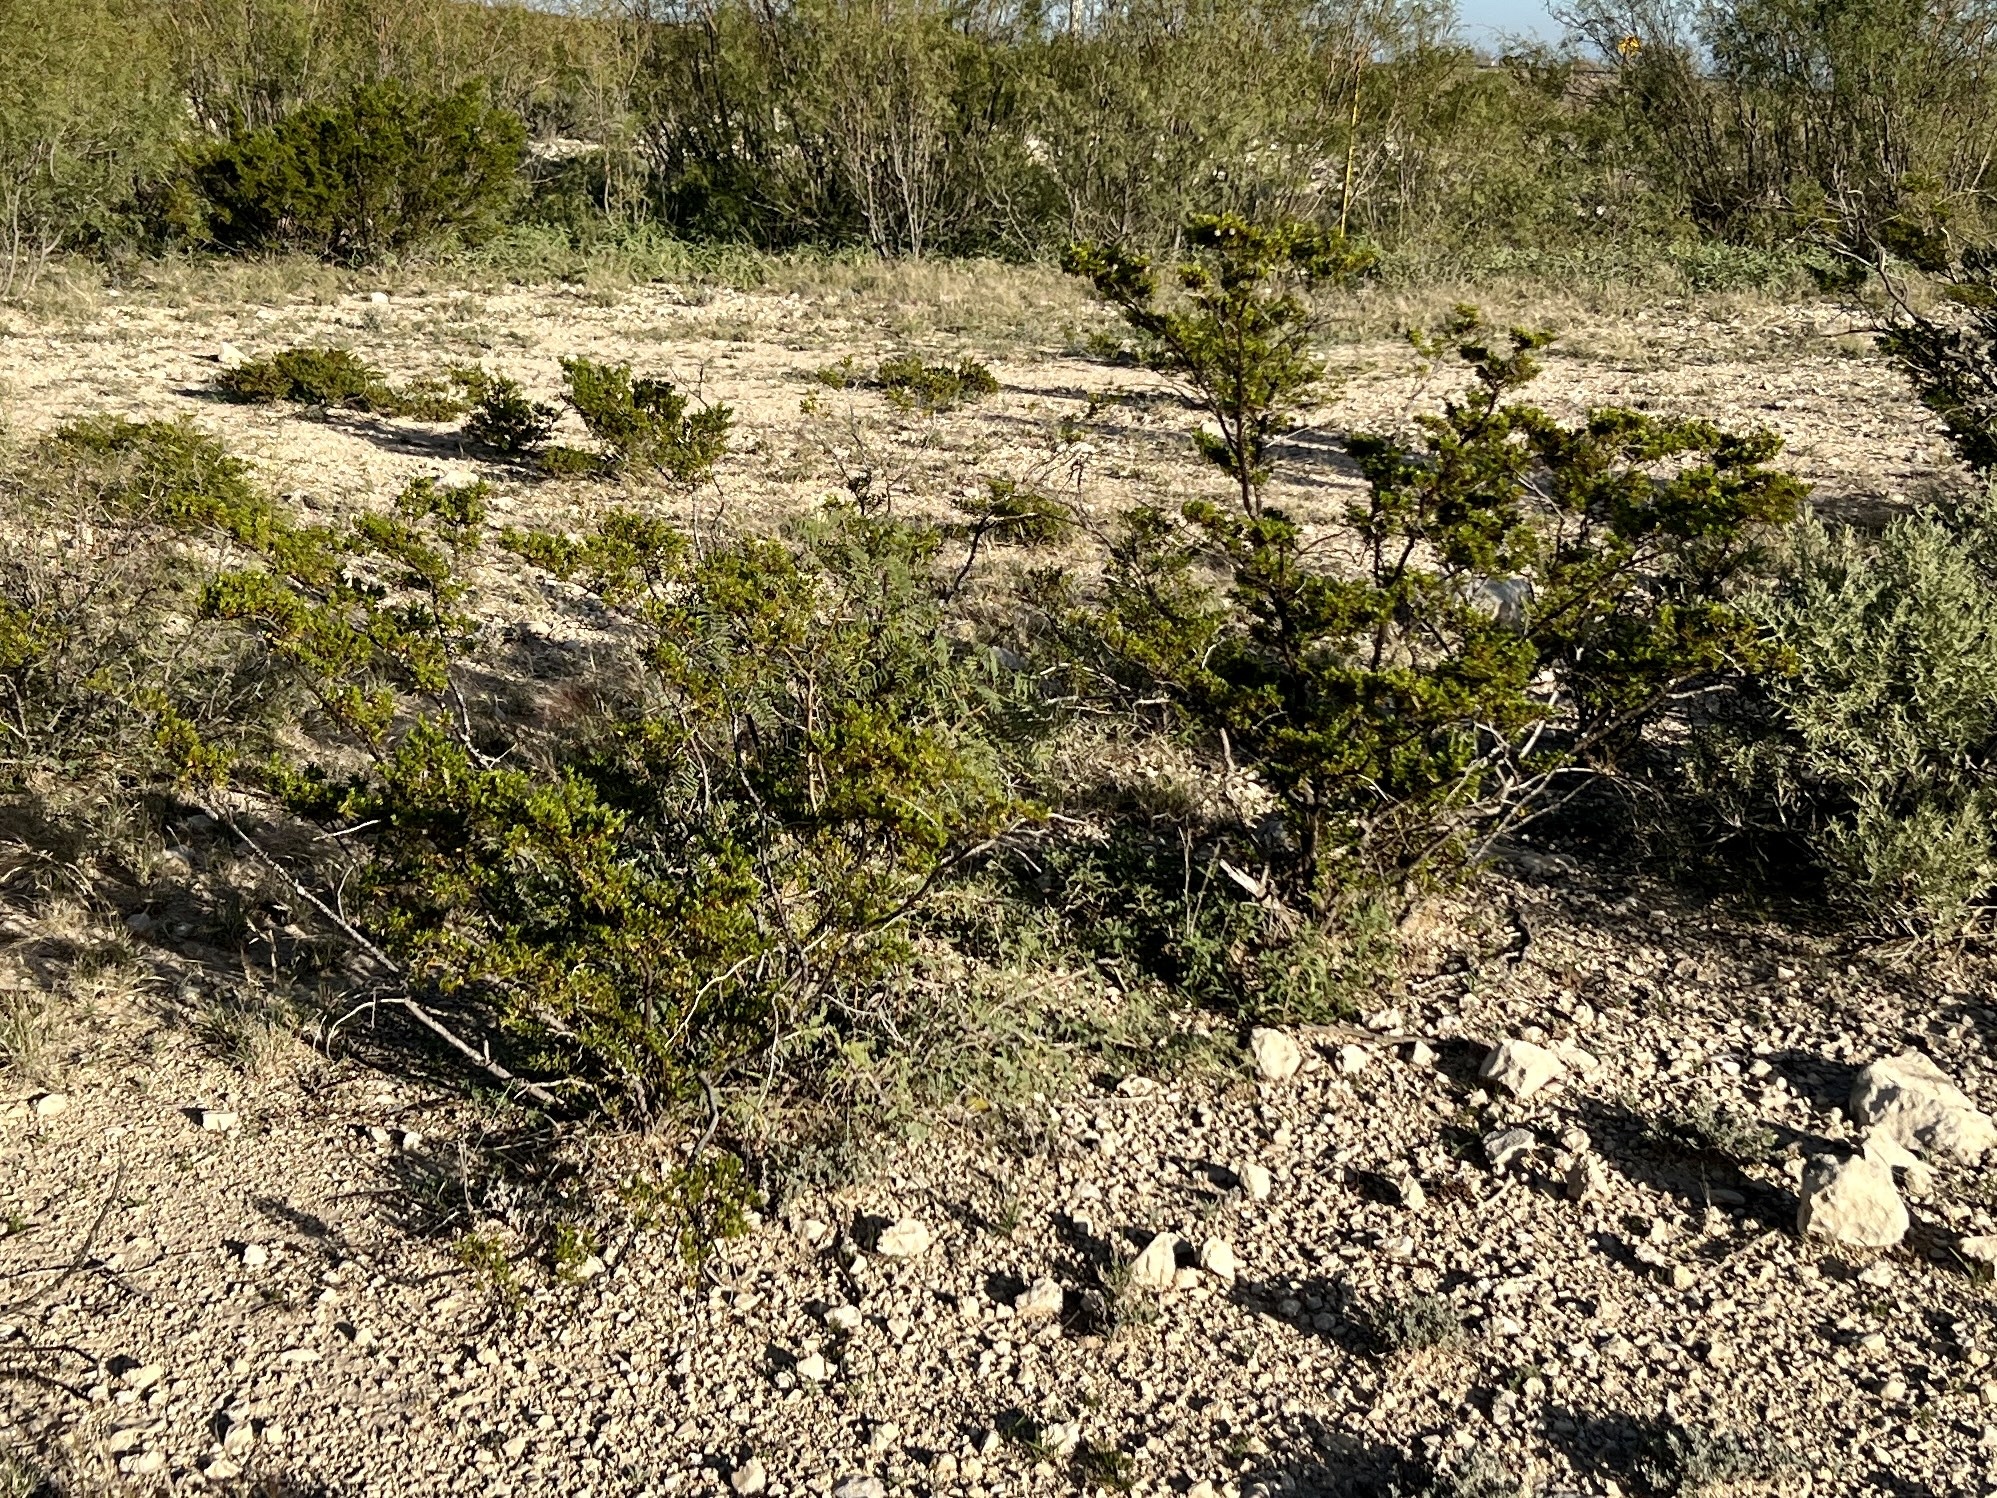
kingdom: Plantae
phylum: Tracheophyta
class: Magnoliopsida
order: Zygophyllales
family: Zygophyllaceae
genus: Larrea
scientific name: Larrea tridentata
